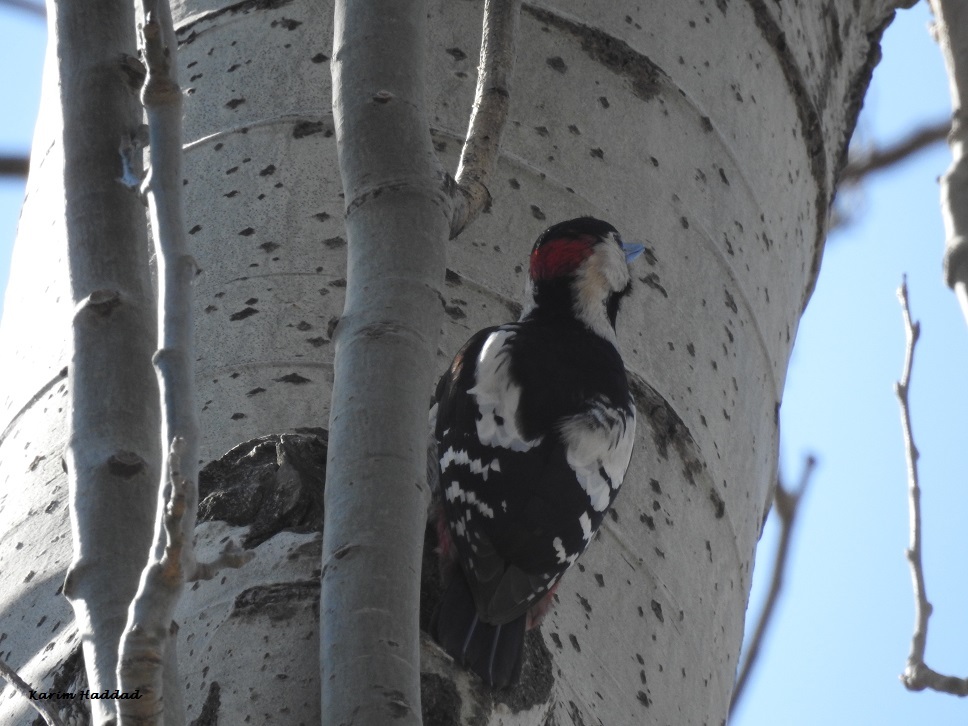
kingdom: Animalia
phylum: Chordata
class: Aves
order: Piciformes
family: Picidae
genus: Dendrocopos
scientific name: Dendrocopos syriacus
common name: Syrian woodpecker
